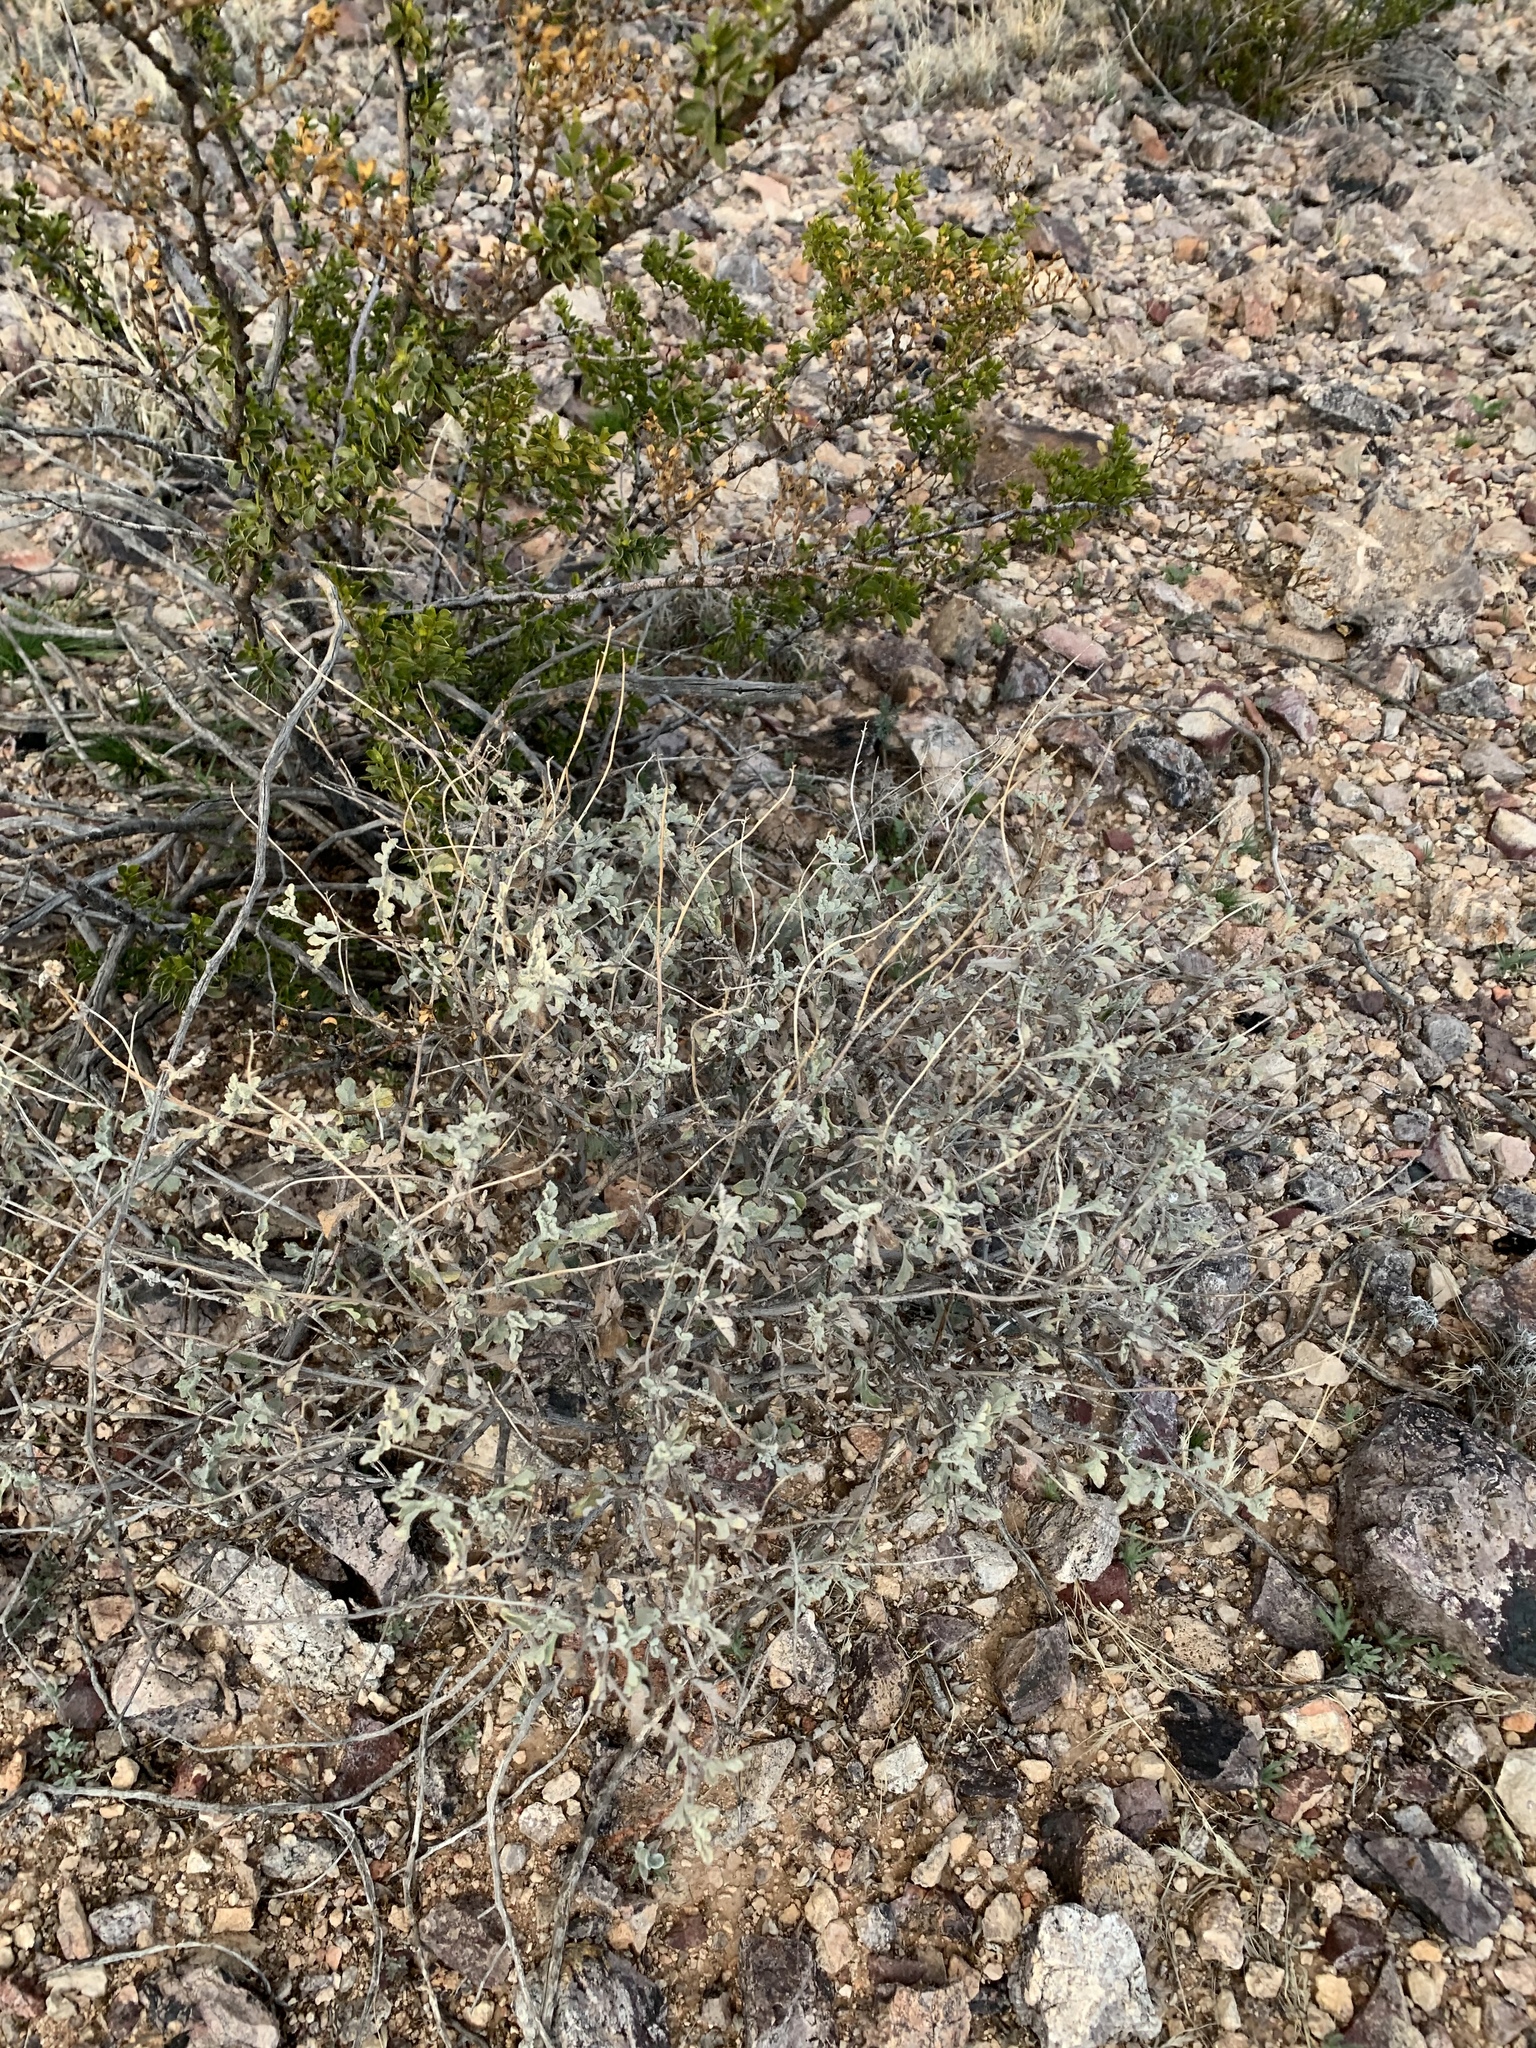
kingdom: Plantae
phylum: Tracheophyta
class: Magnoliopsida
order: Asterales
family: Asteraceae
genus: Parthenium
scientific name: Parthenium incanum
